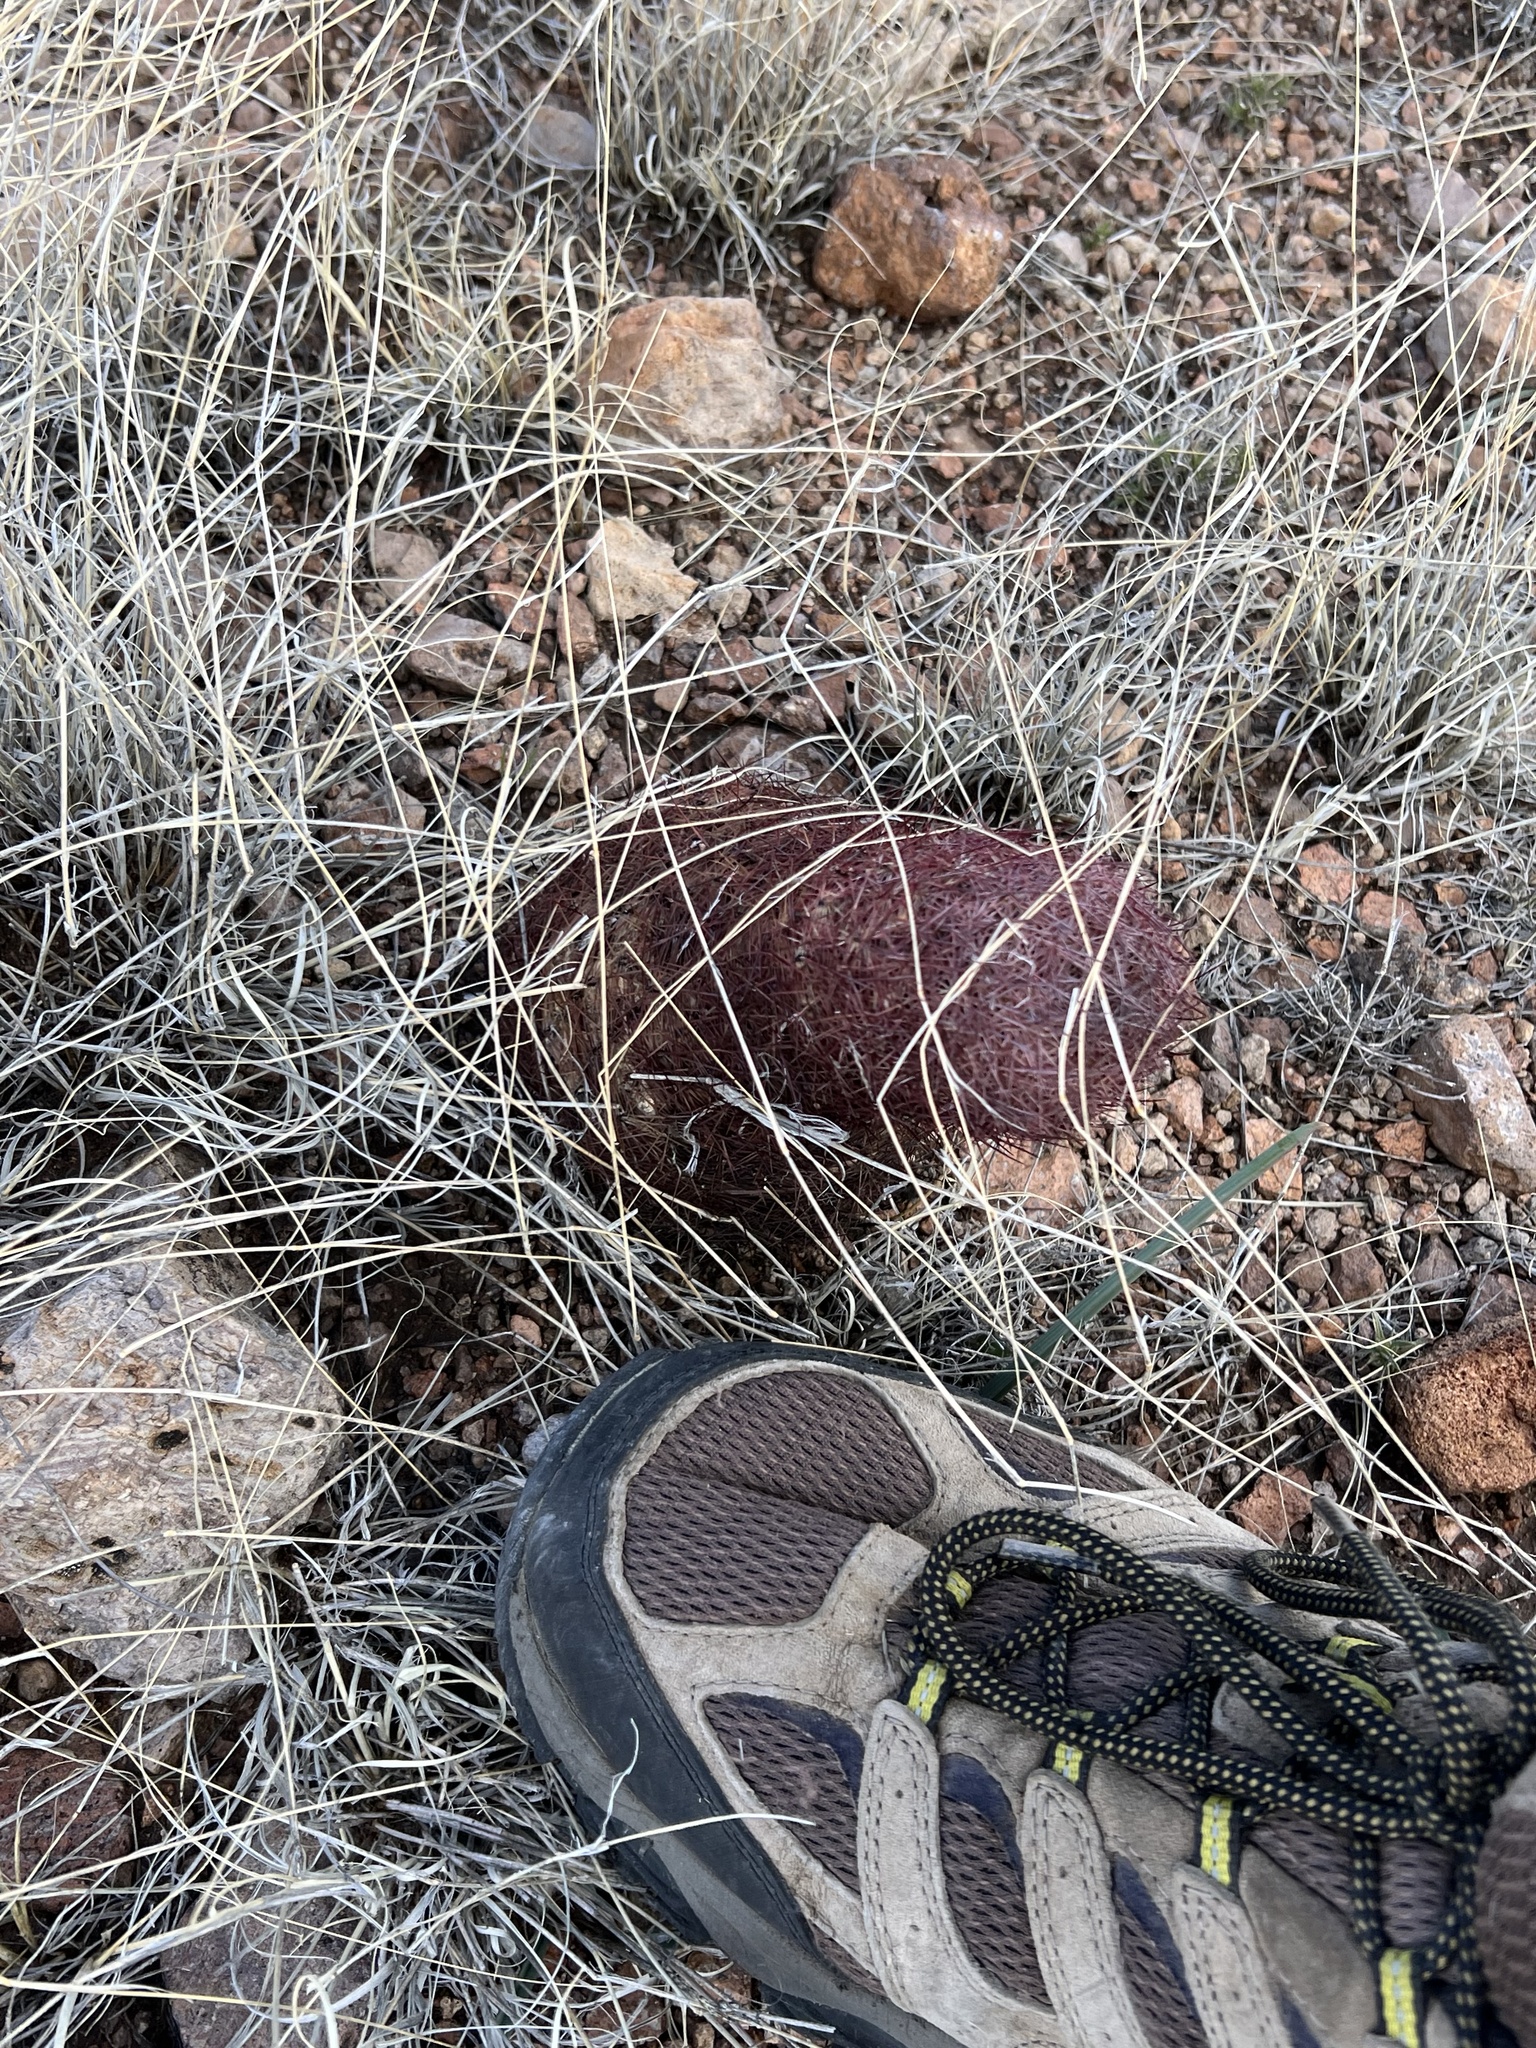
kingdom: Plantae
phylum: Tracheophyta
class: Magnoliopsida
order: Caryophyllales
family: Cactaceae
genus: Sclerocactus
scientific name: Sclerocactus johnsonii
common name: Eight-spine fishhook cactus
